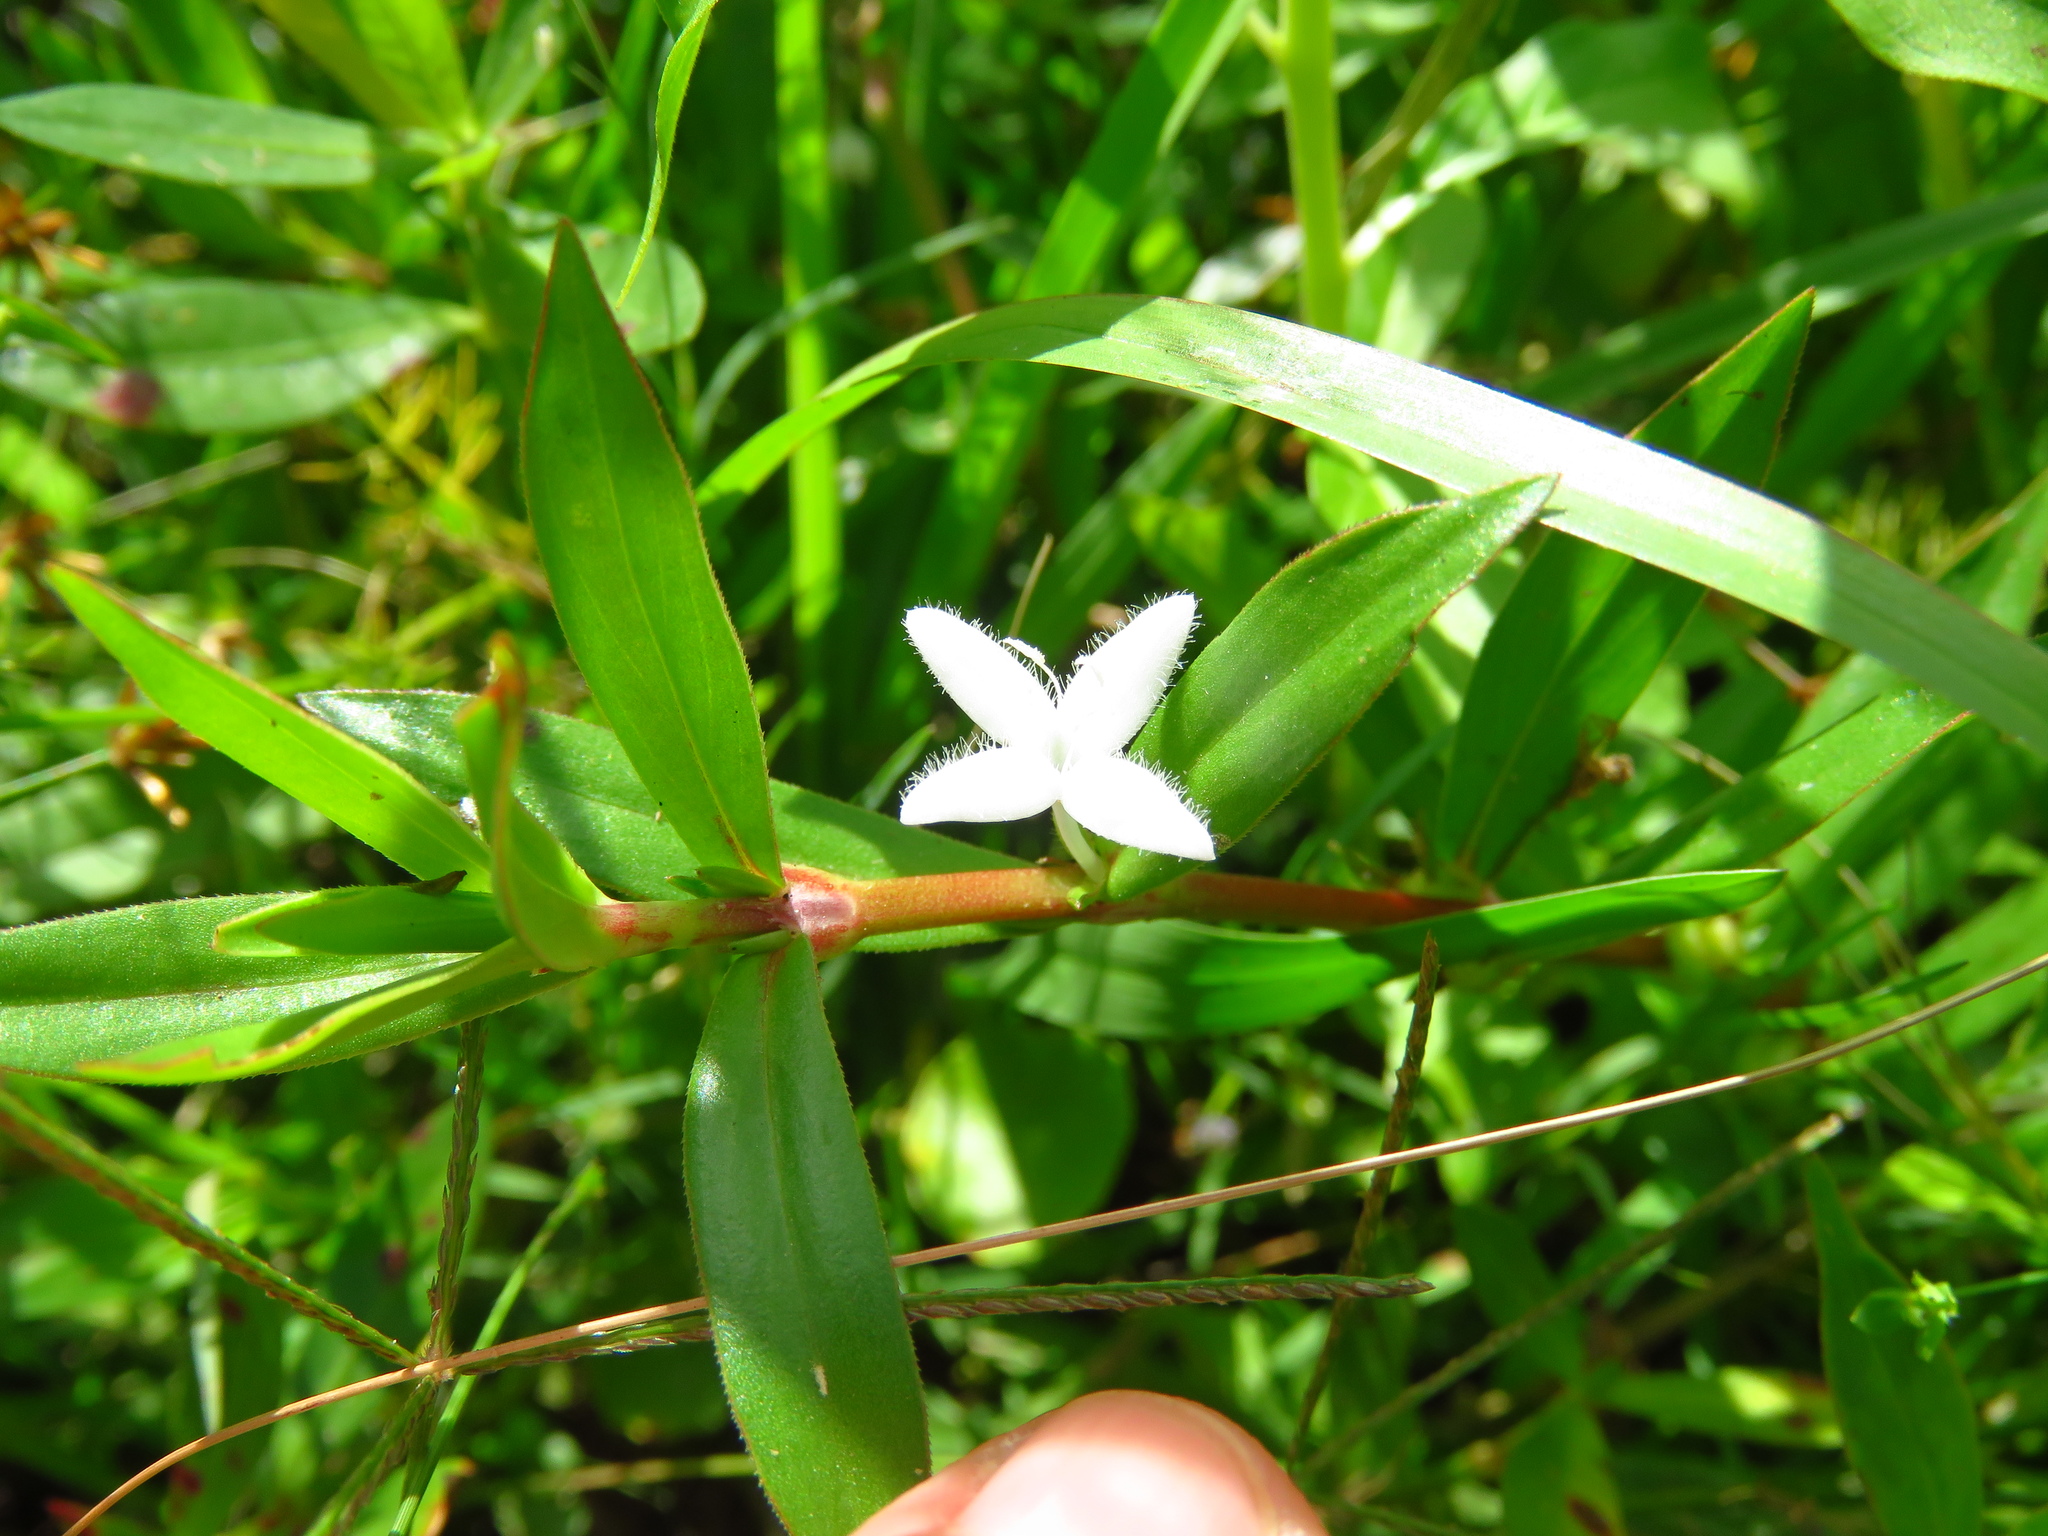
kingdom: Plantae
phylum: Tracheophyta
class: Magnoliopsida
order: Gentianales
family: Rubiaceae
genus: Diodia
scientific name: Diodia virginiana
